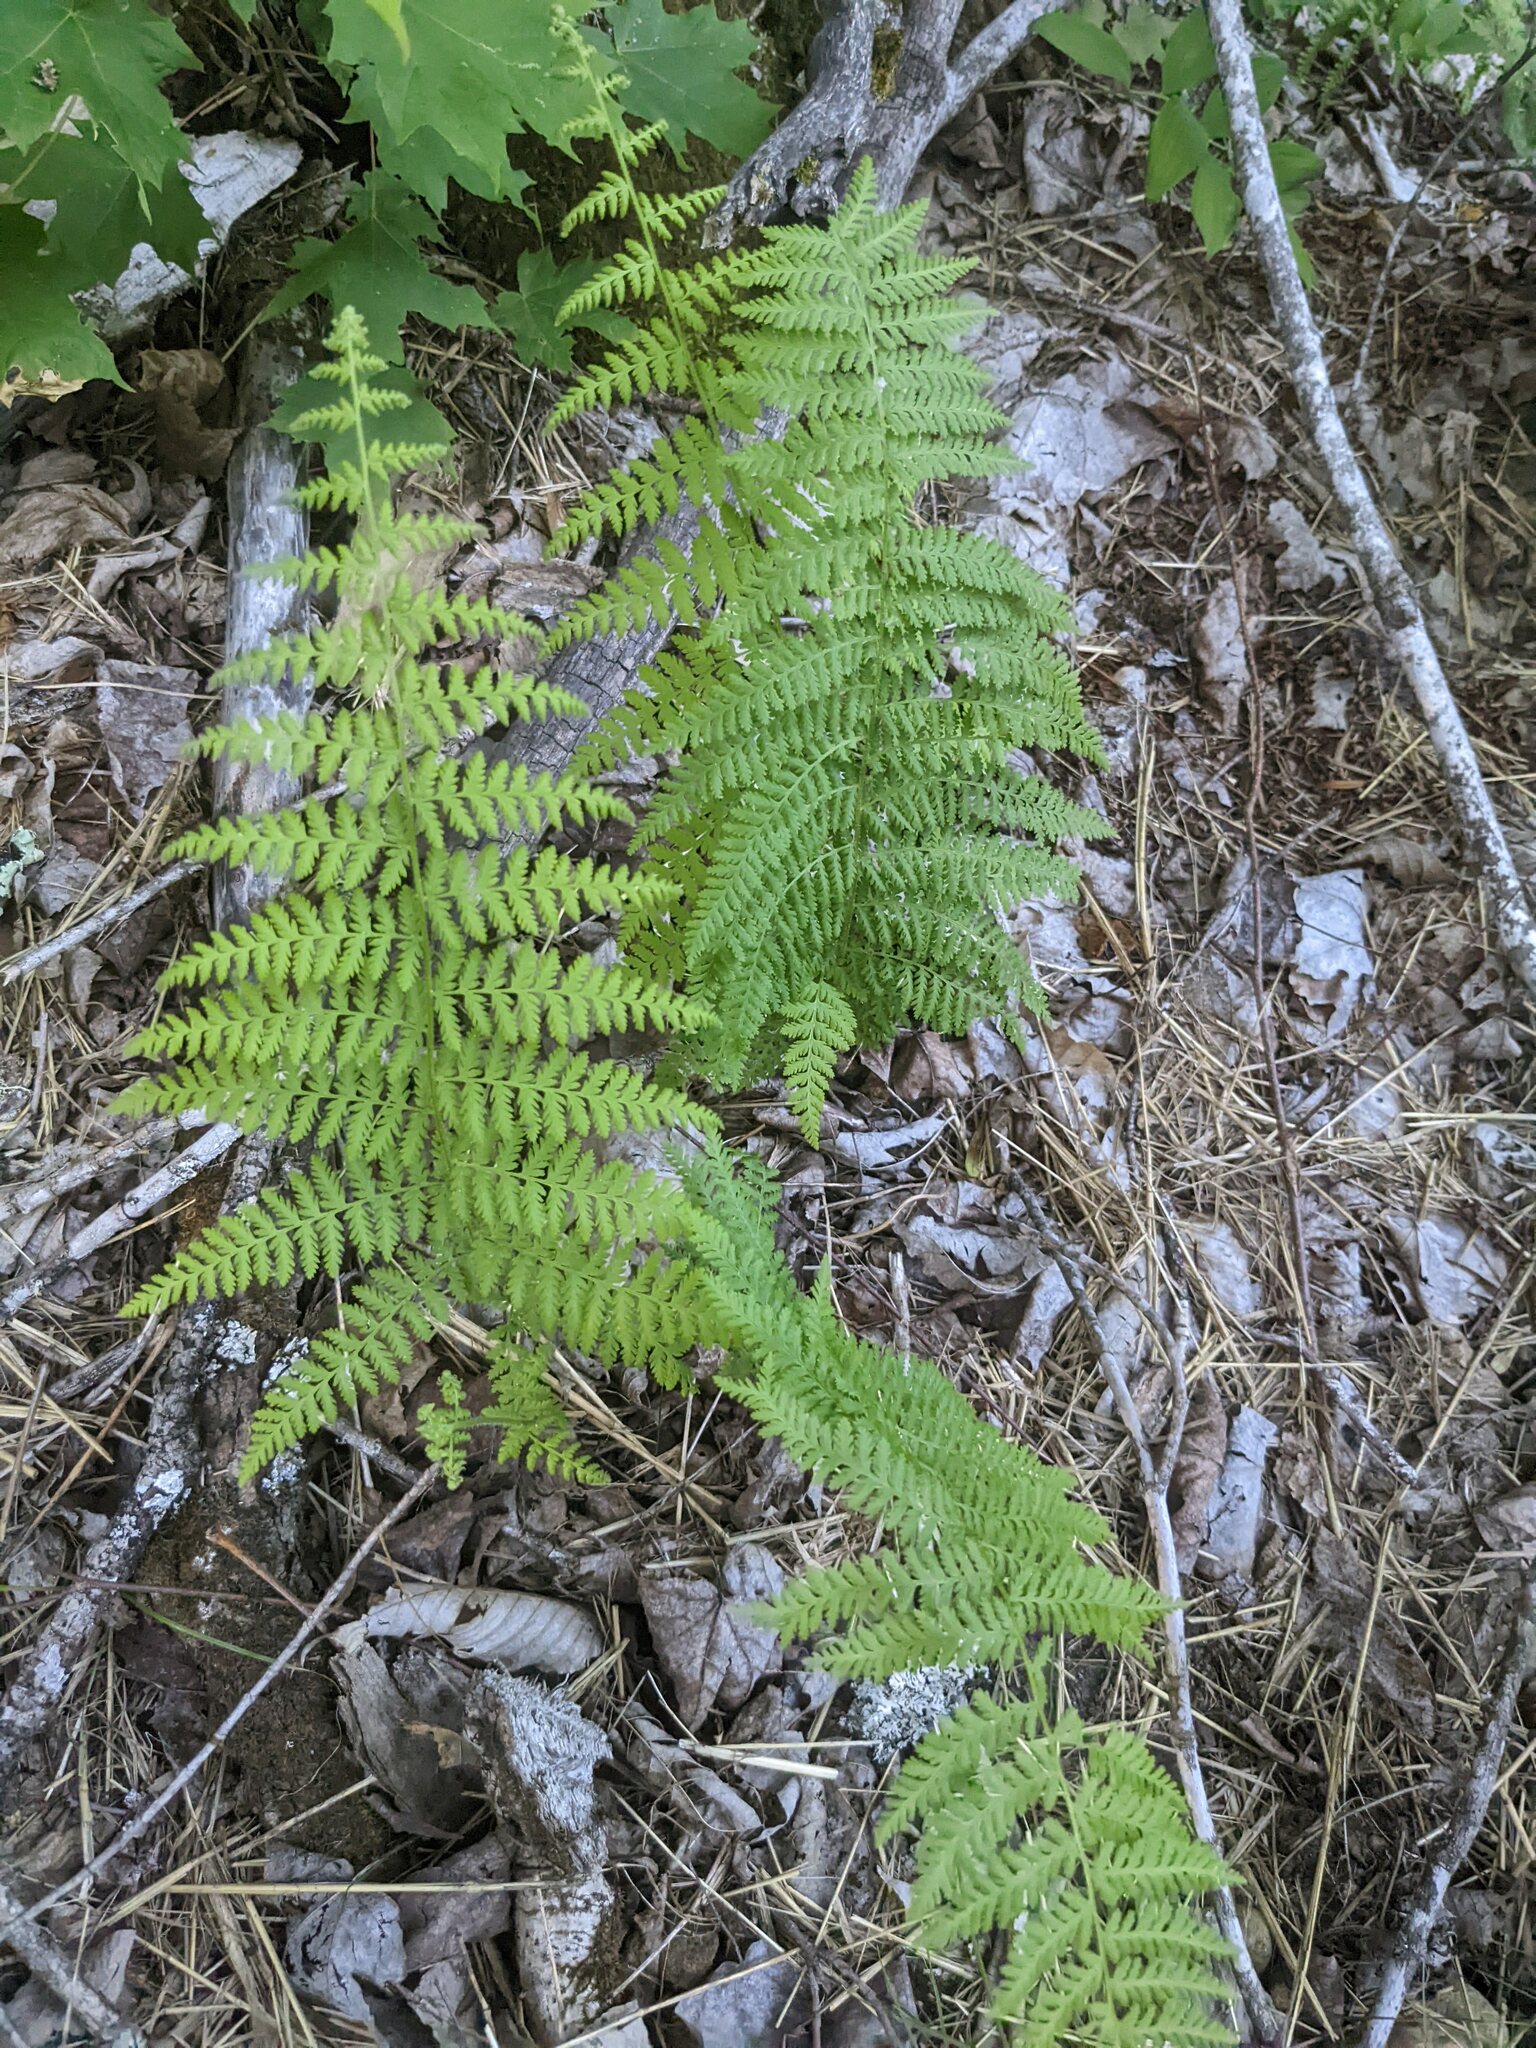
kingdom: Plantae
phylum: Tracheophyta
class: Polypodiopsida
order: Polypodiales
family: Dennstaedtiaceae
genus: Sitobolium
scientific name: Sitobolium punctilobum
